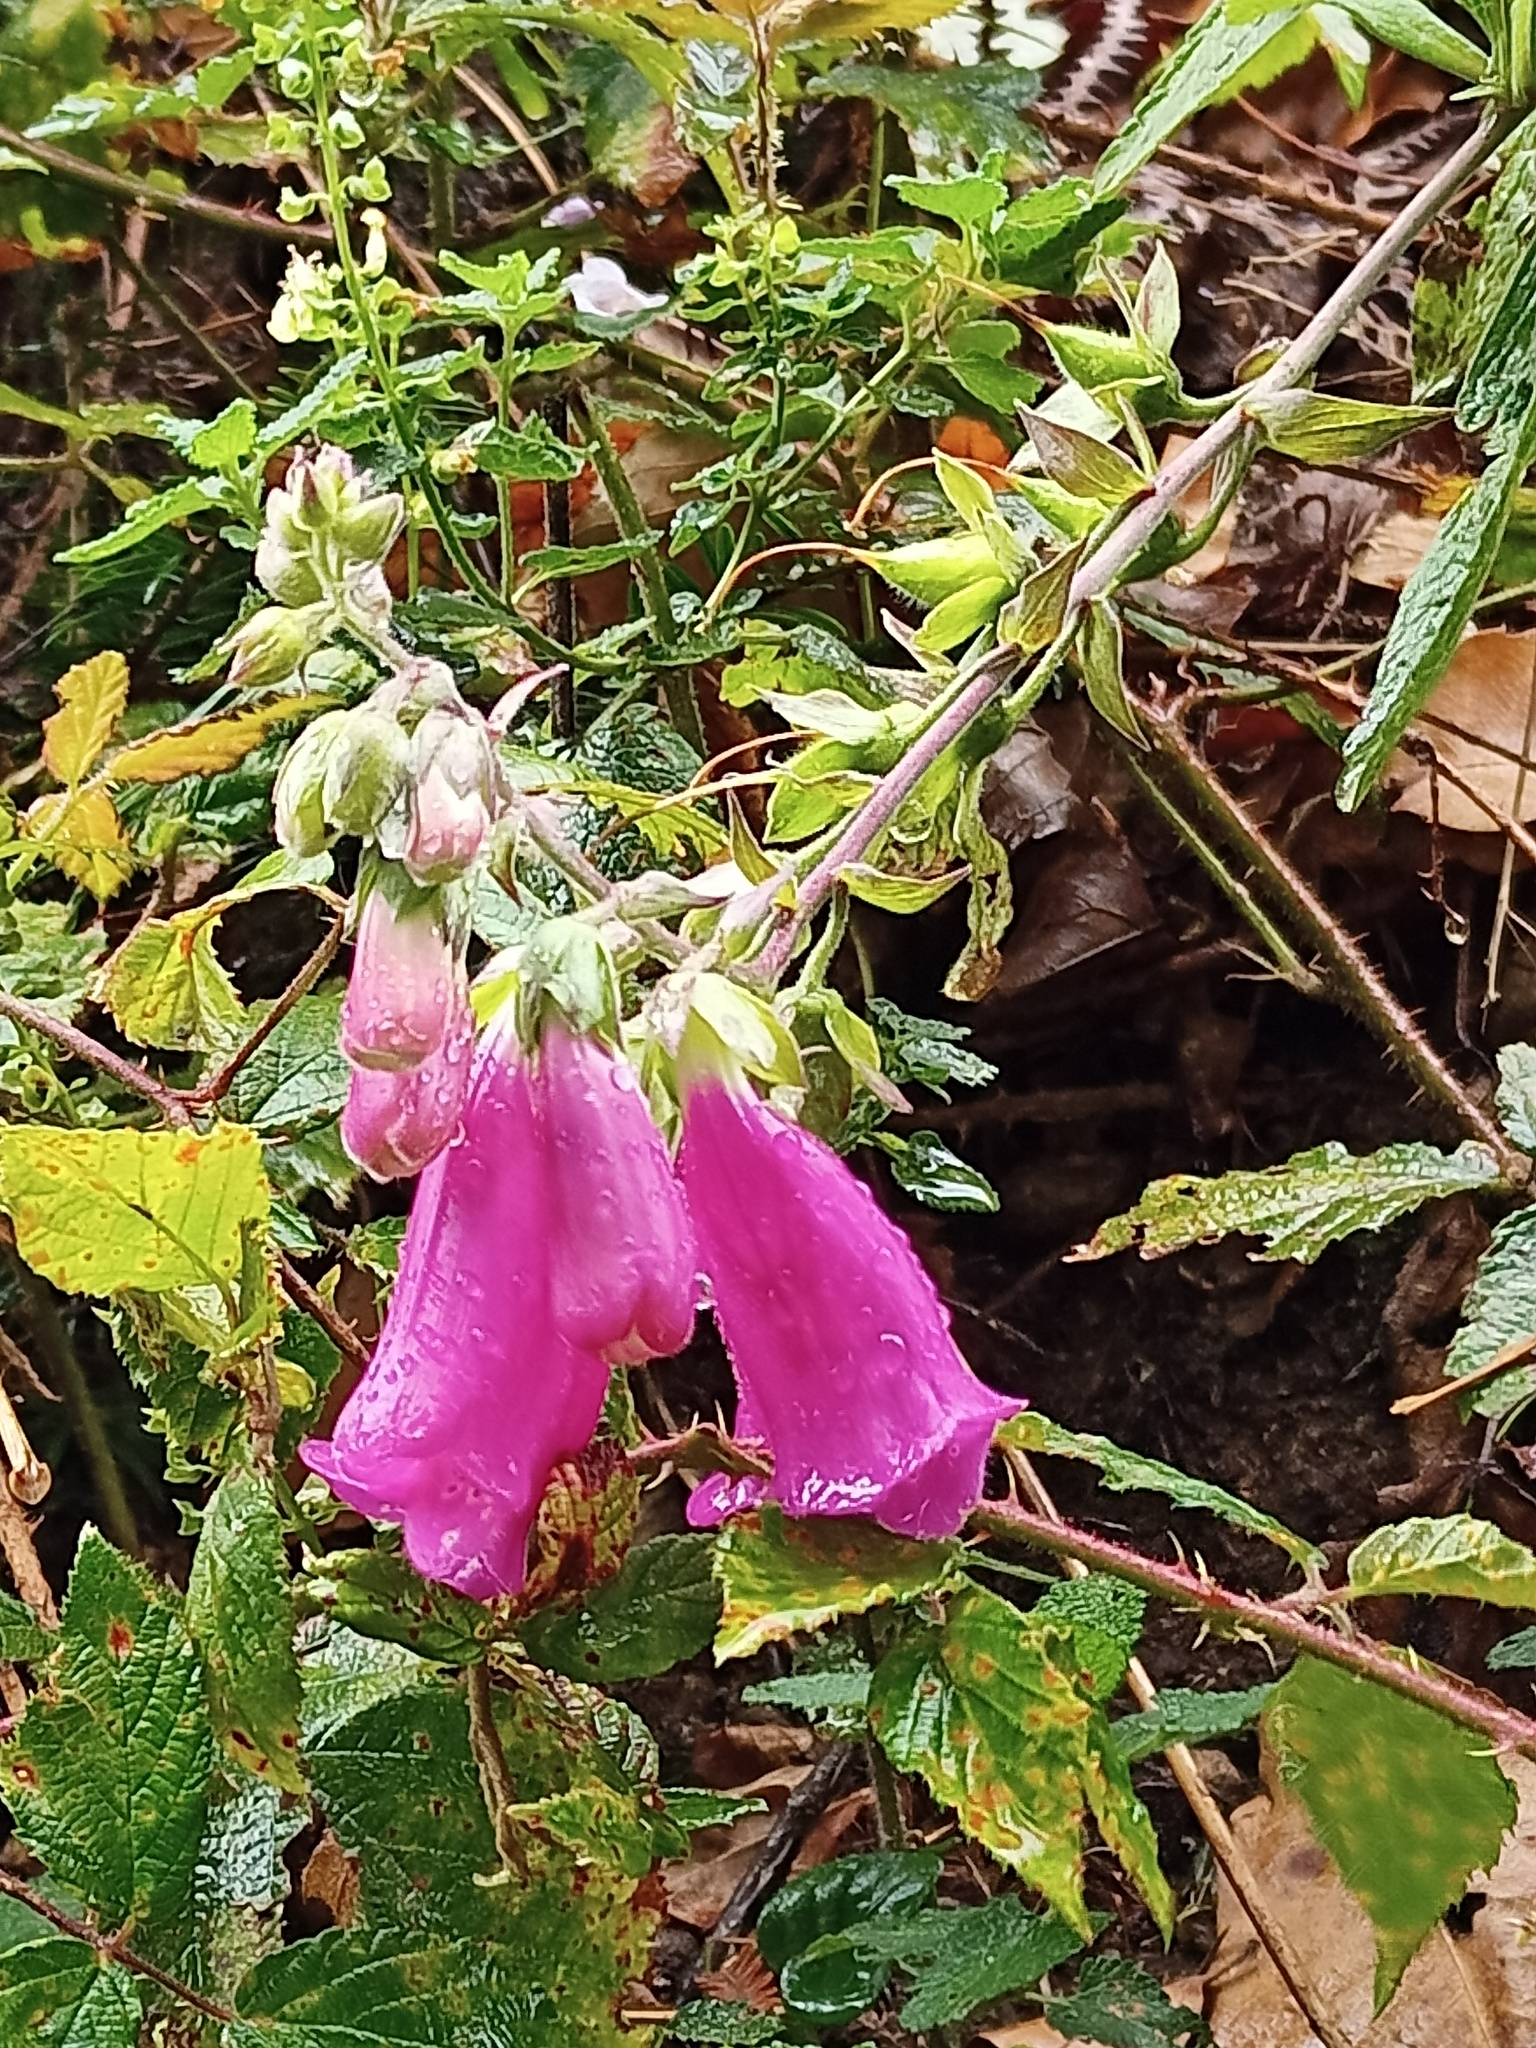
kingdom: Plantae
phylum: Tracheophyta
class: Magnoliopsida
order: Lamiales
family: Plantaginaceae
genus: Digitalis
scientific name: Digitalis purpurea
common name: Foxglove
